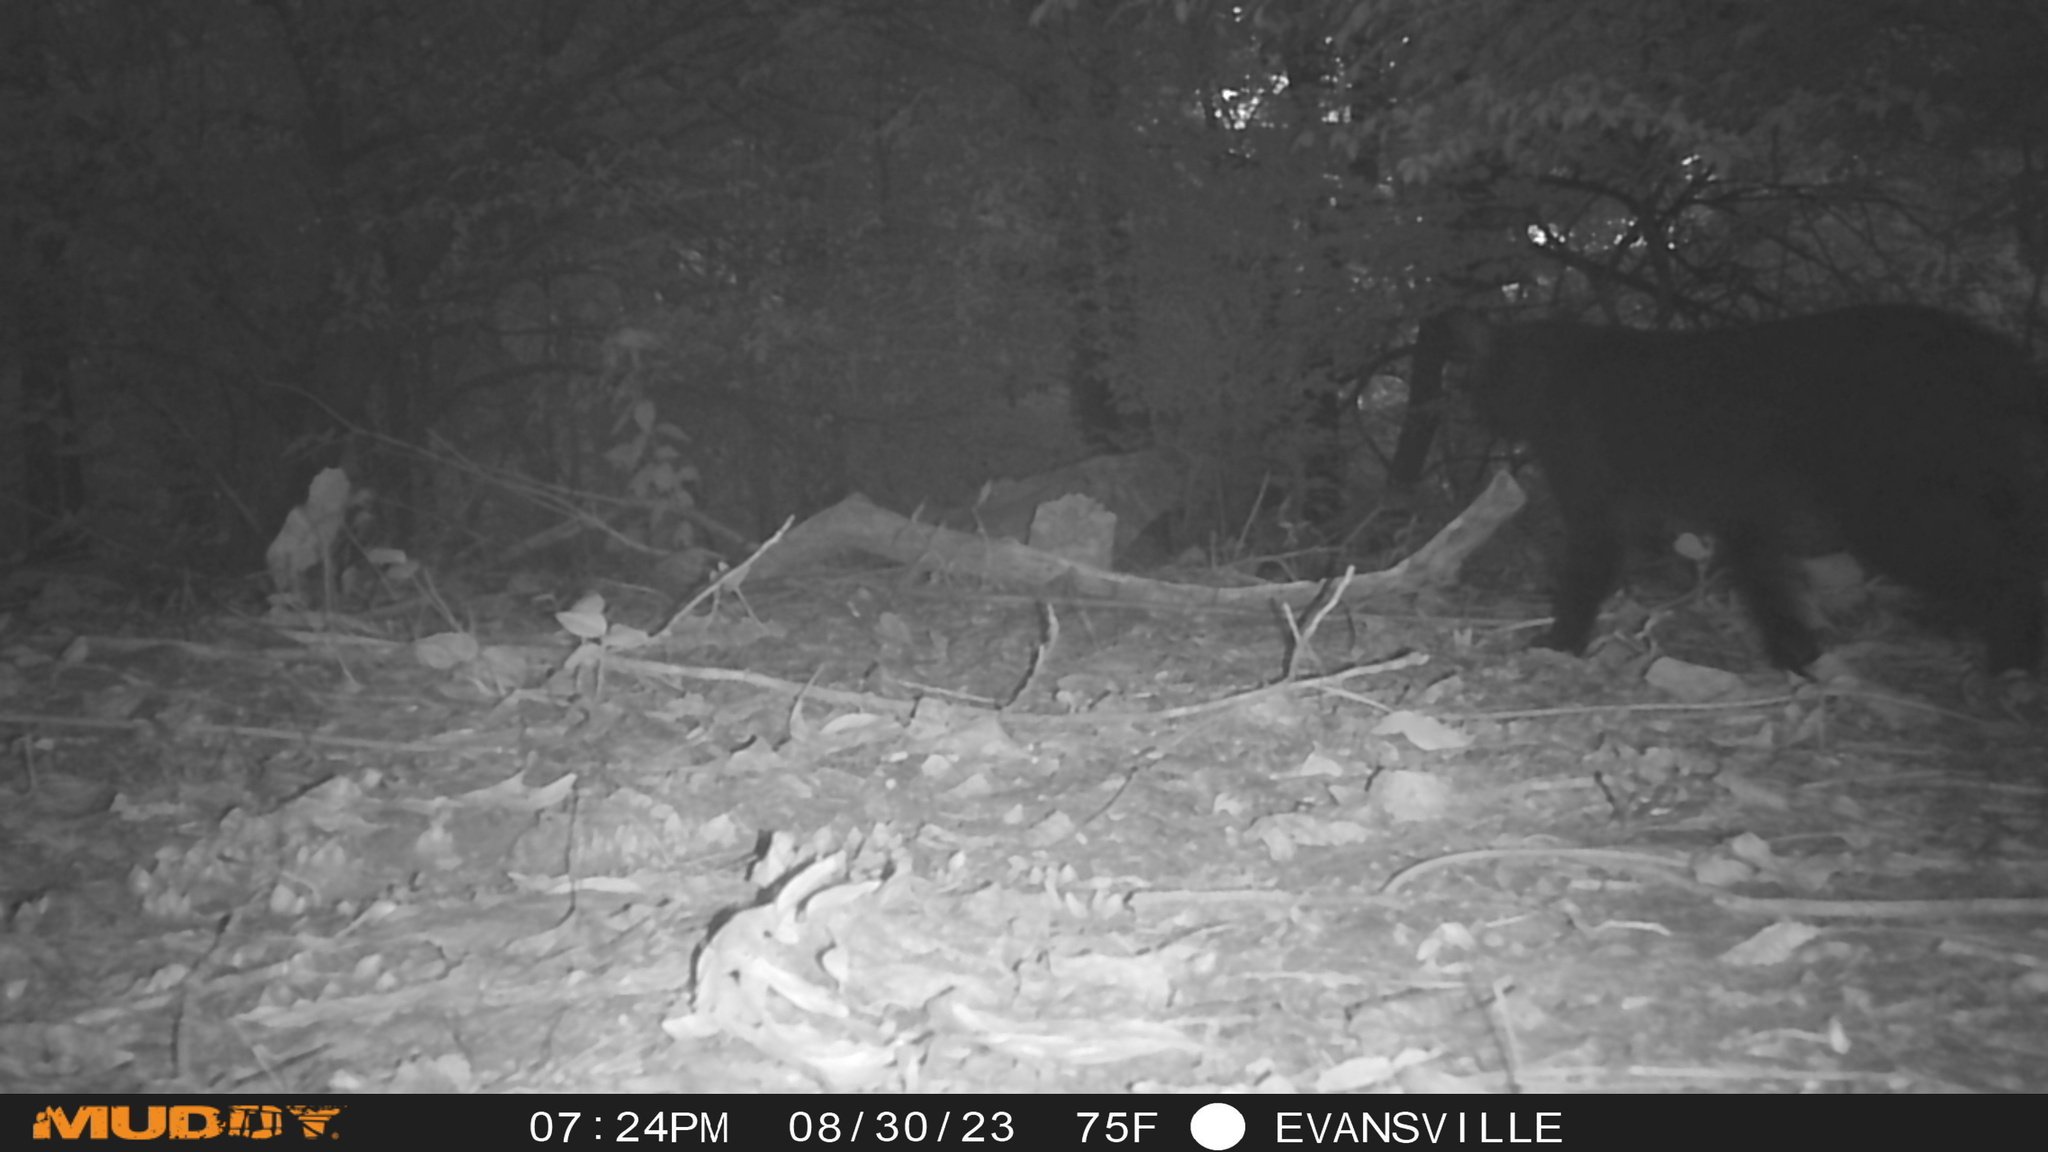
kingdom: Animalia
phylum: Chordata
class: Mammalia
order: Carnivora
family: Felidae
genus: Felis
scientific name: Felis catus
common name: Domestic cat
